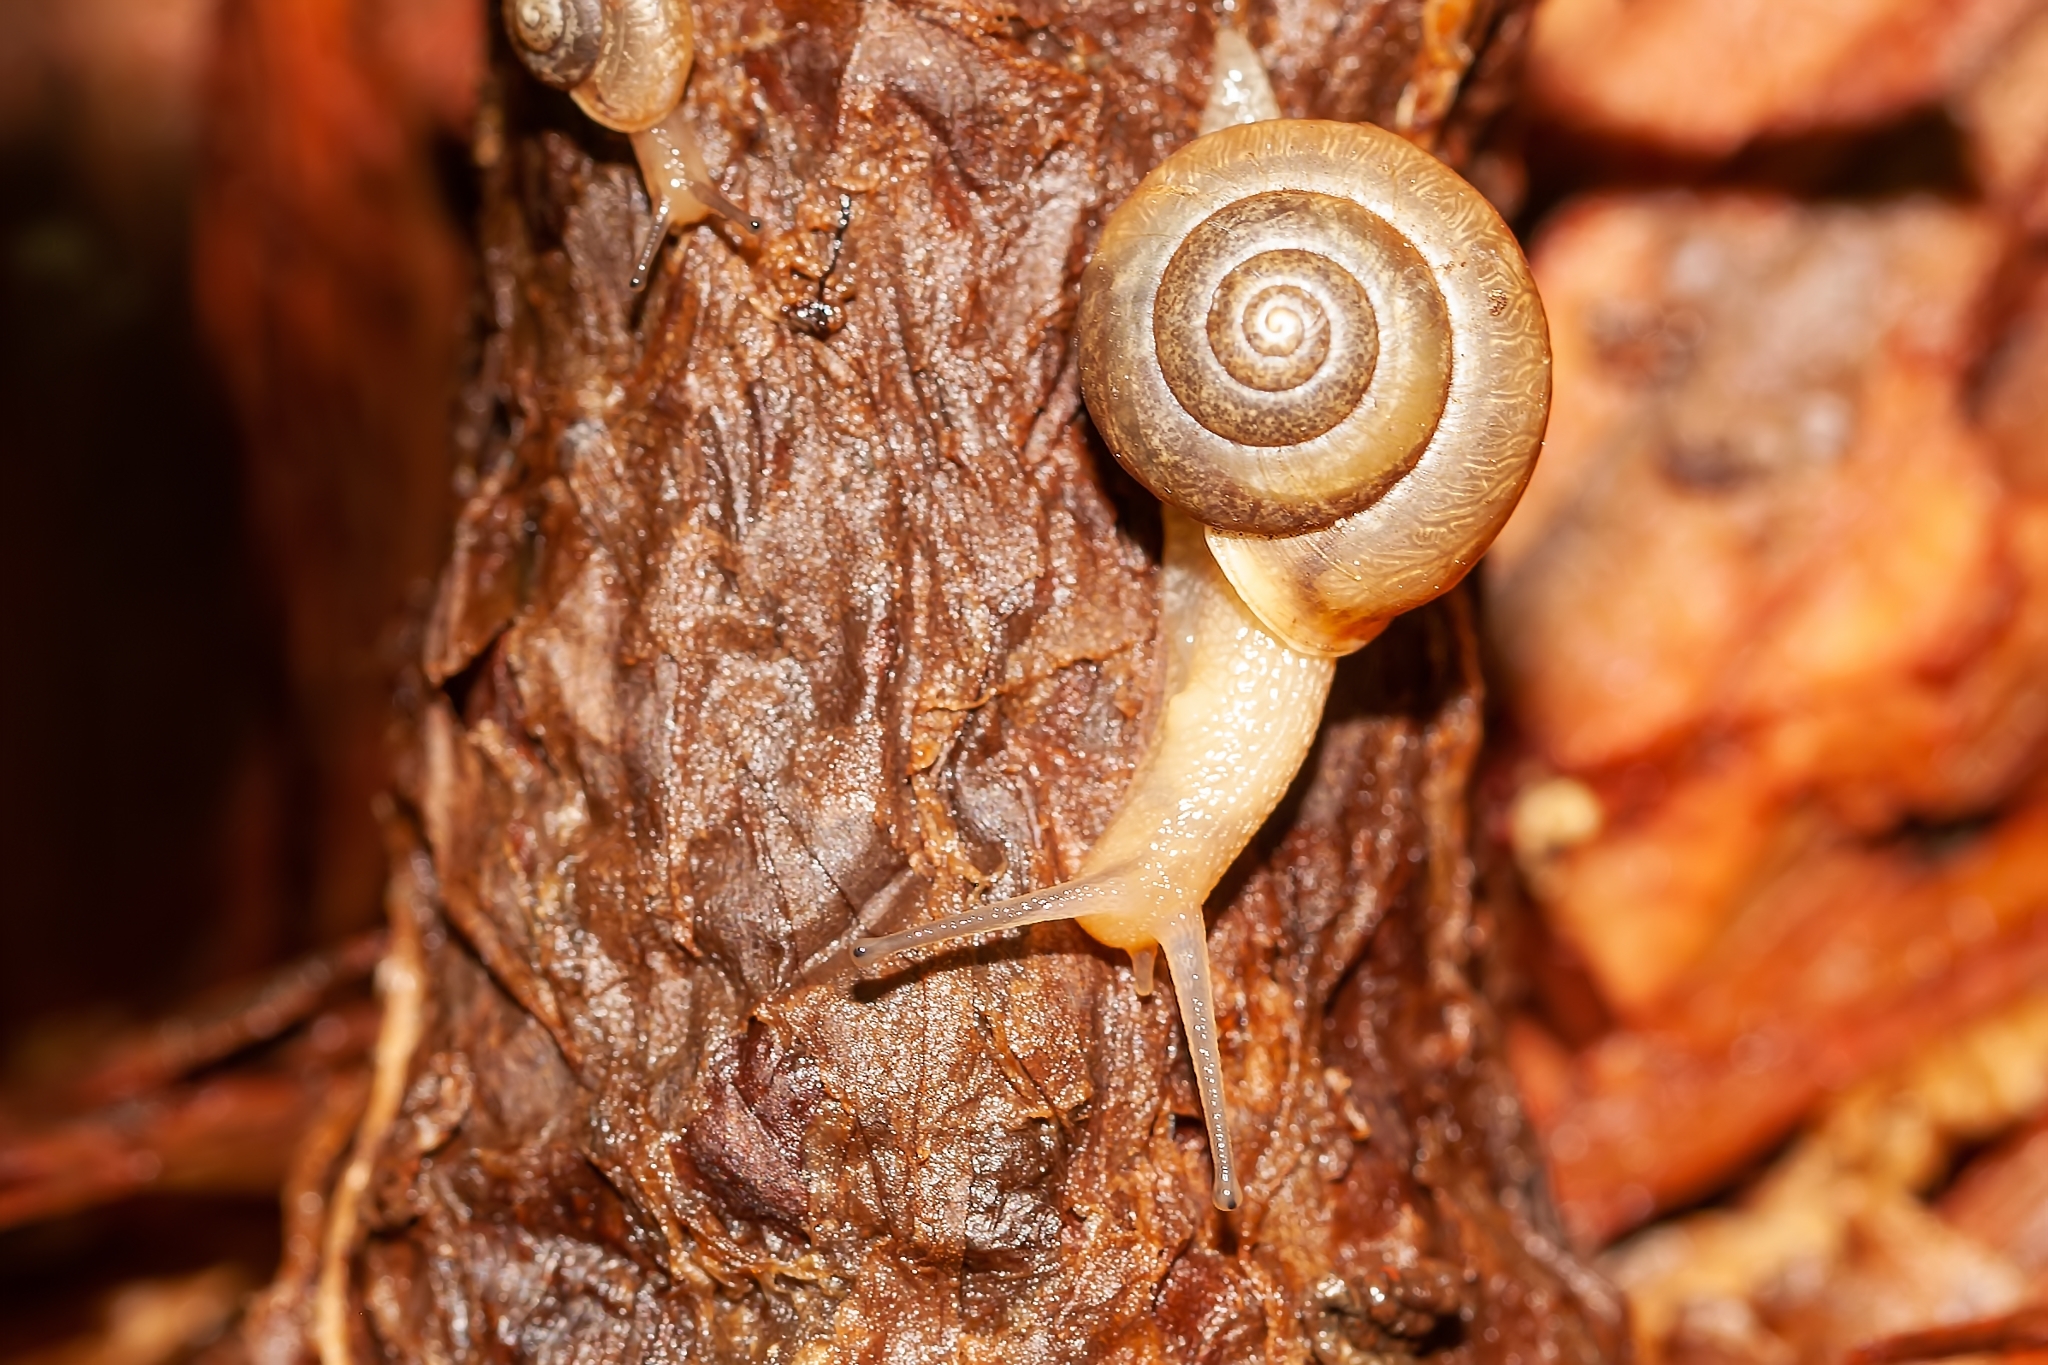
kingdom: Animalia
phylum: Mollusca
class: Gastropoda
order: Stylommatophora
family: Camaenidae
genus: Bradybaena
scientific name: Bradybaena similaris
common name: Asian trampsnail
